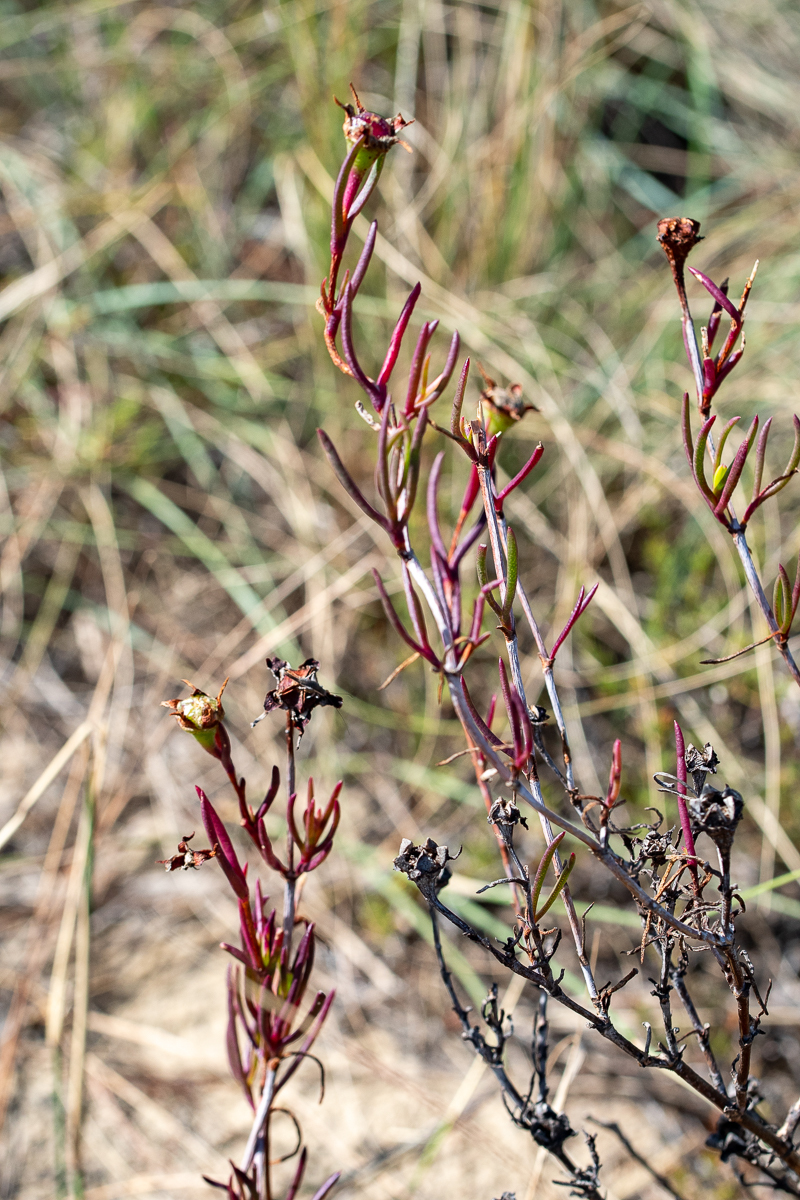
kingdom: Plantae
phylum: Tracheophyta
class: Magnoliopsida
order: Caryophyllales
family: Aizoaceae
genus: Lampranthus
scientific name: Lampranthus bicolor
